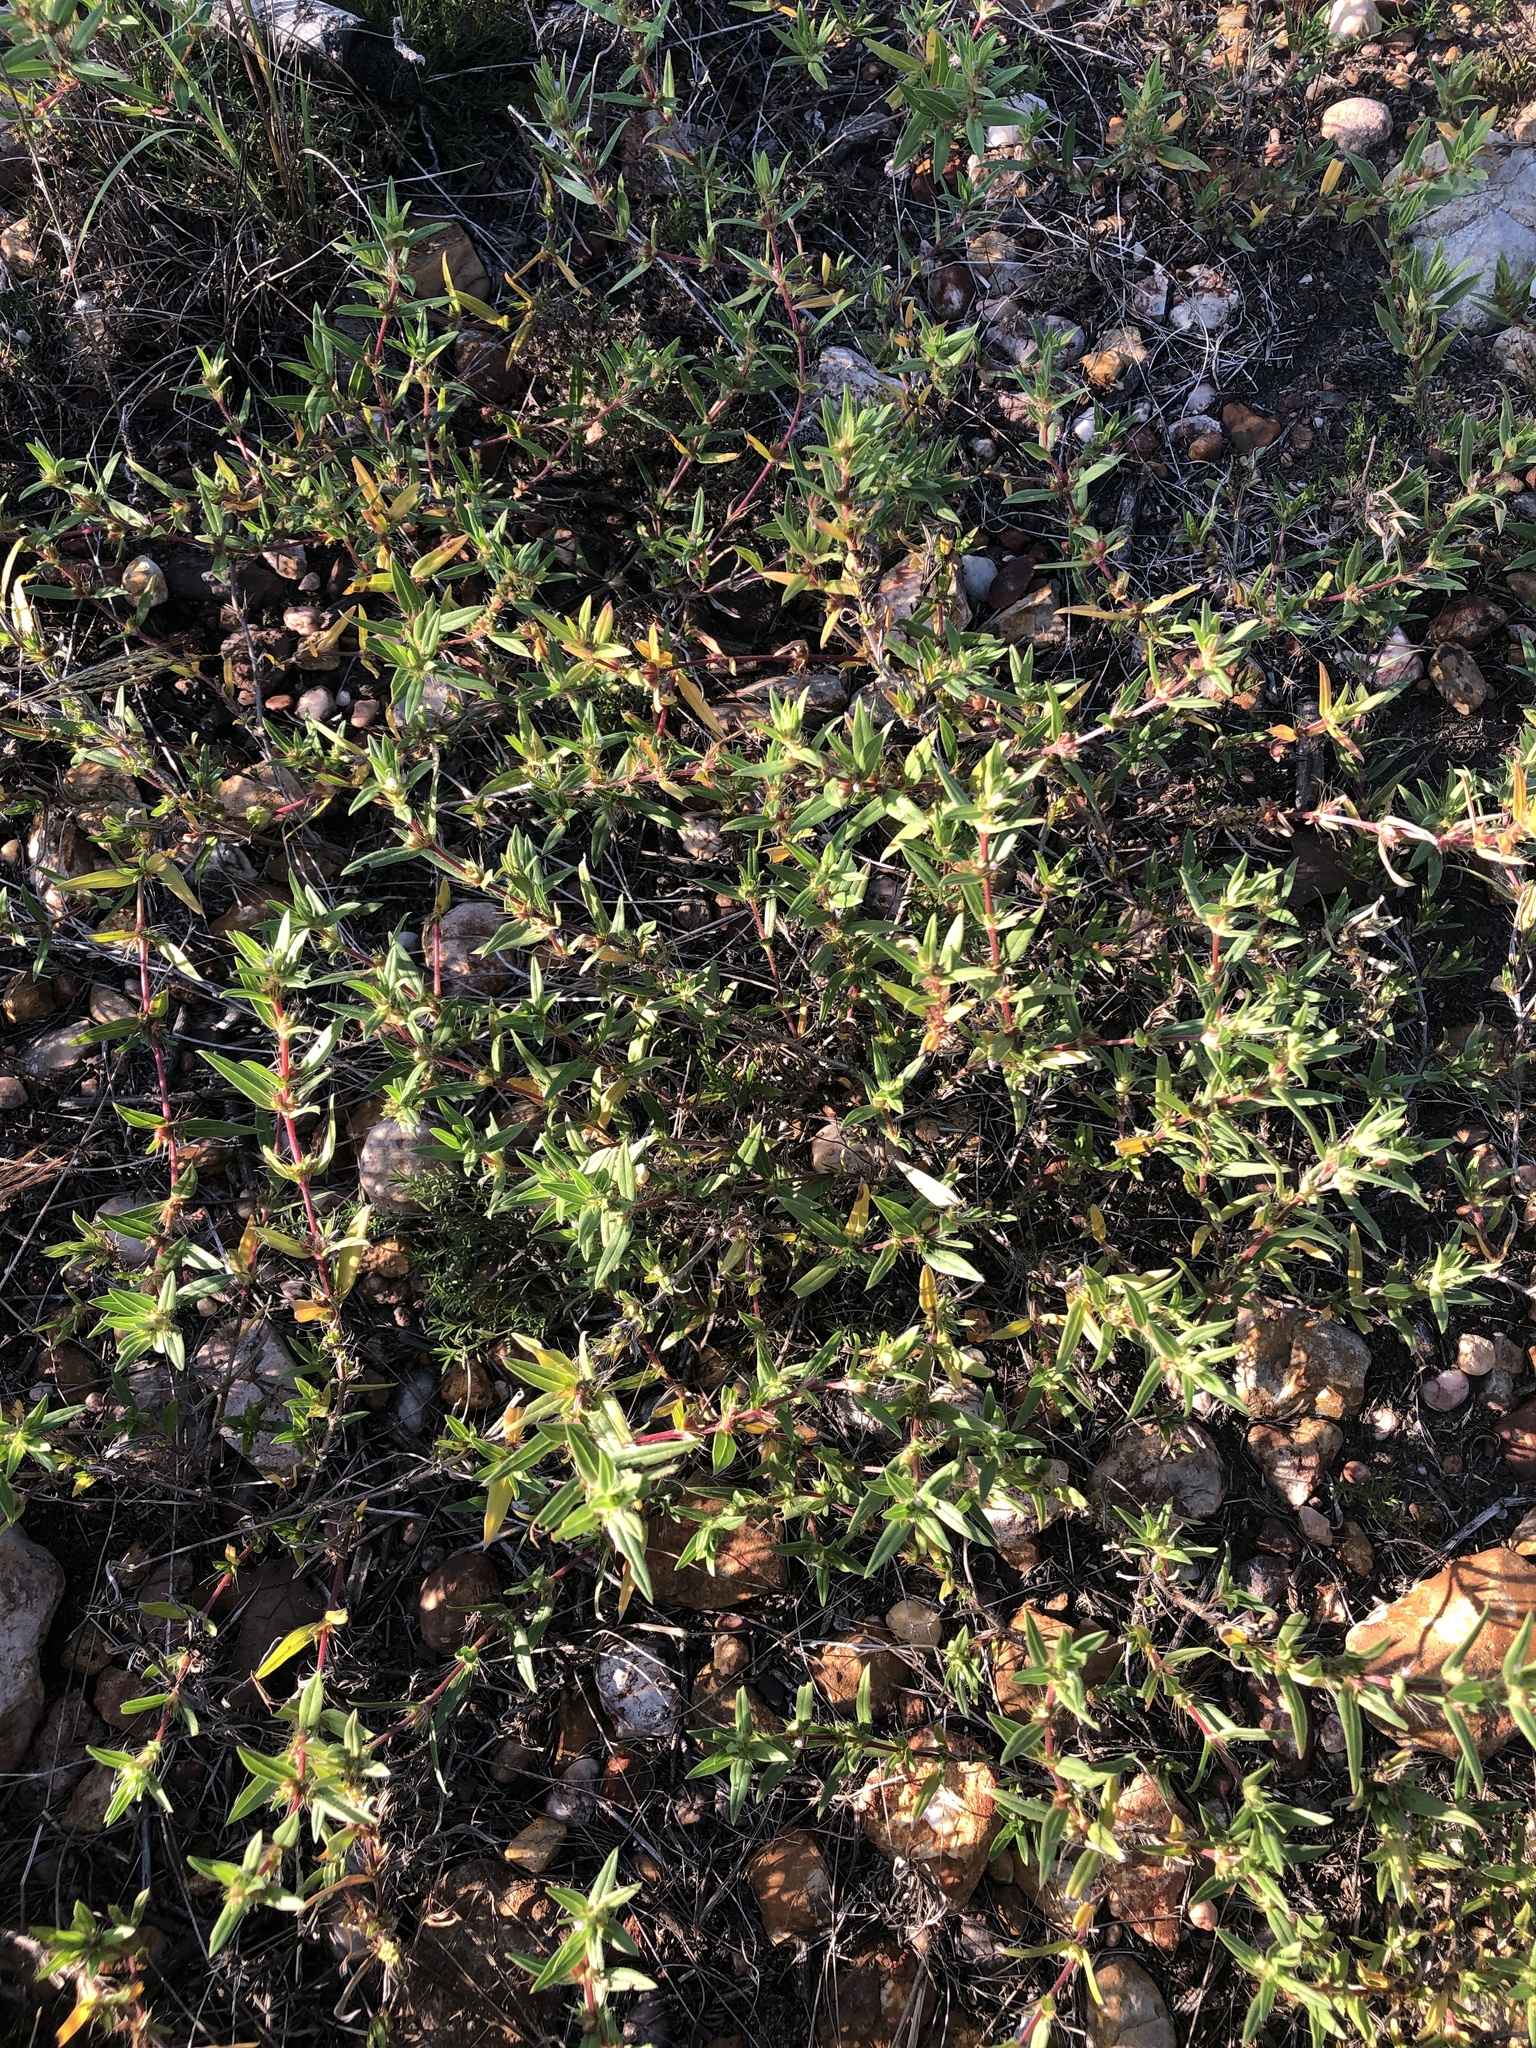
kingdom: Plantae
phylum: Tracheophyta
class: Magnoliopsida
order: Gentianales
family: Rubiaceae
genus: Hexasepalum
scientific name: Hexasepalum teres
